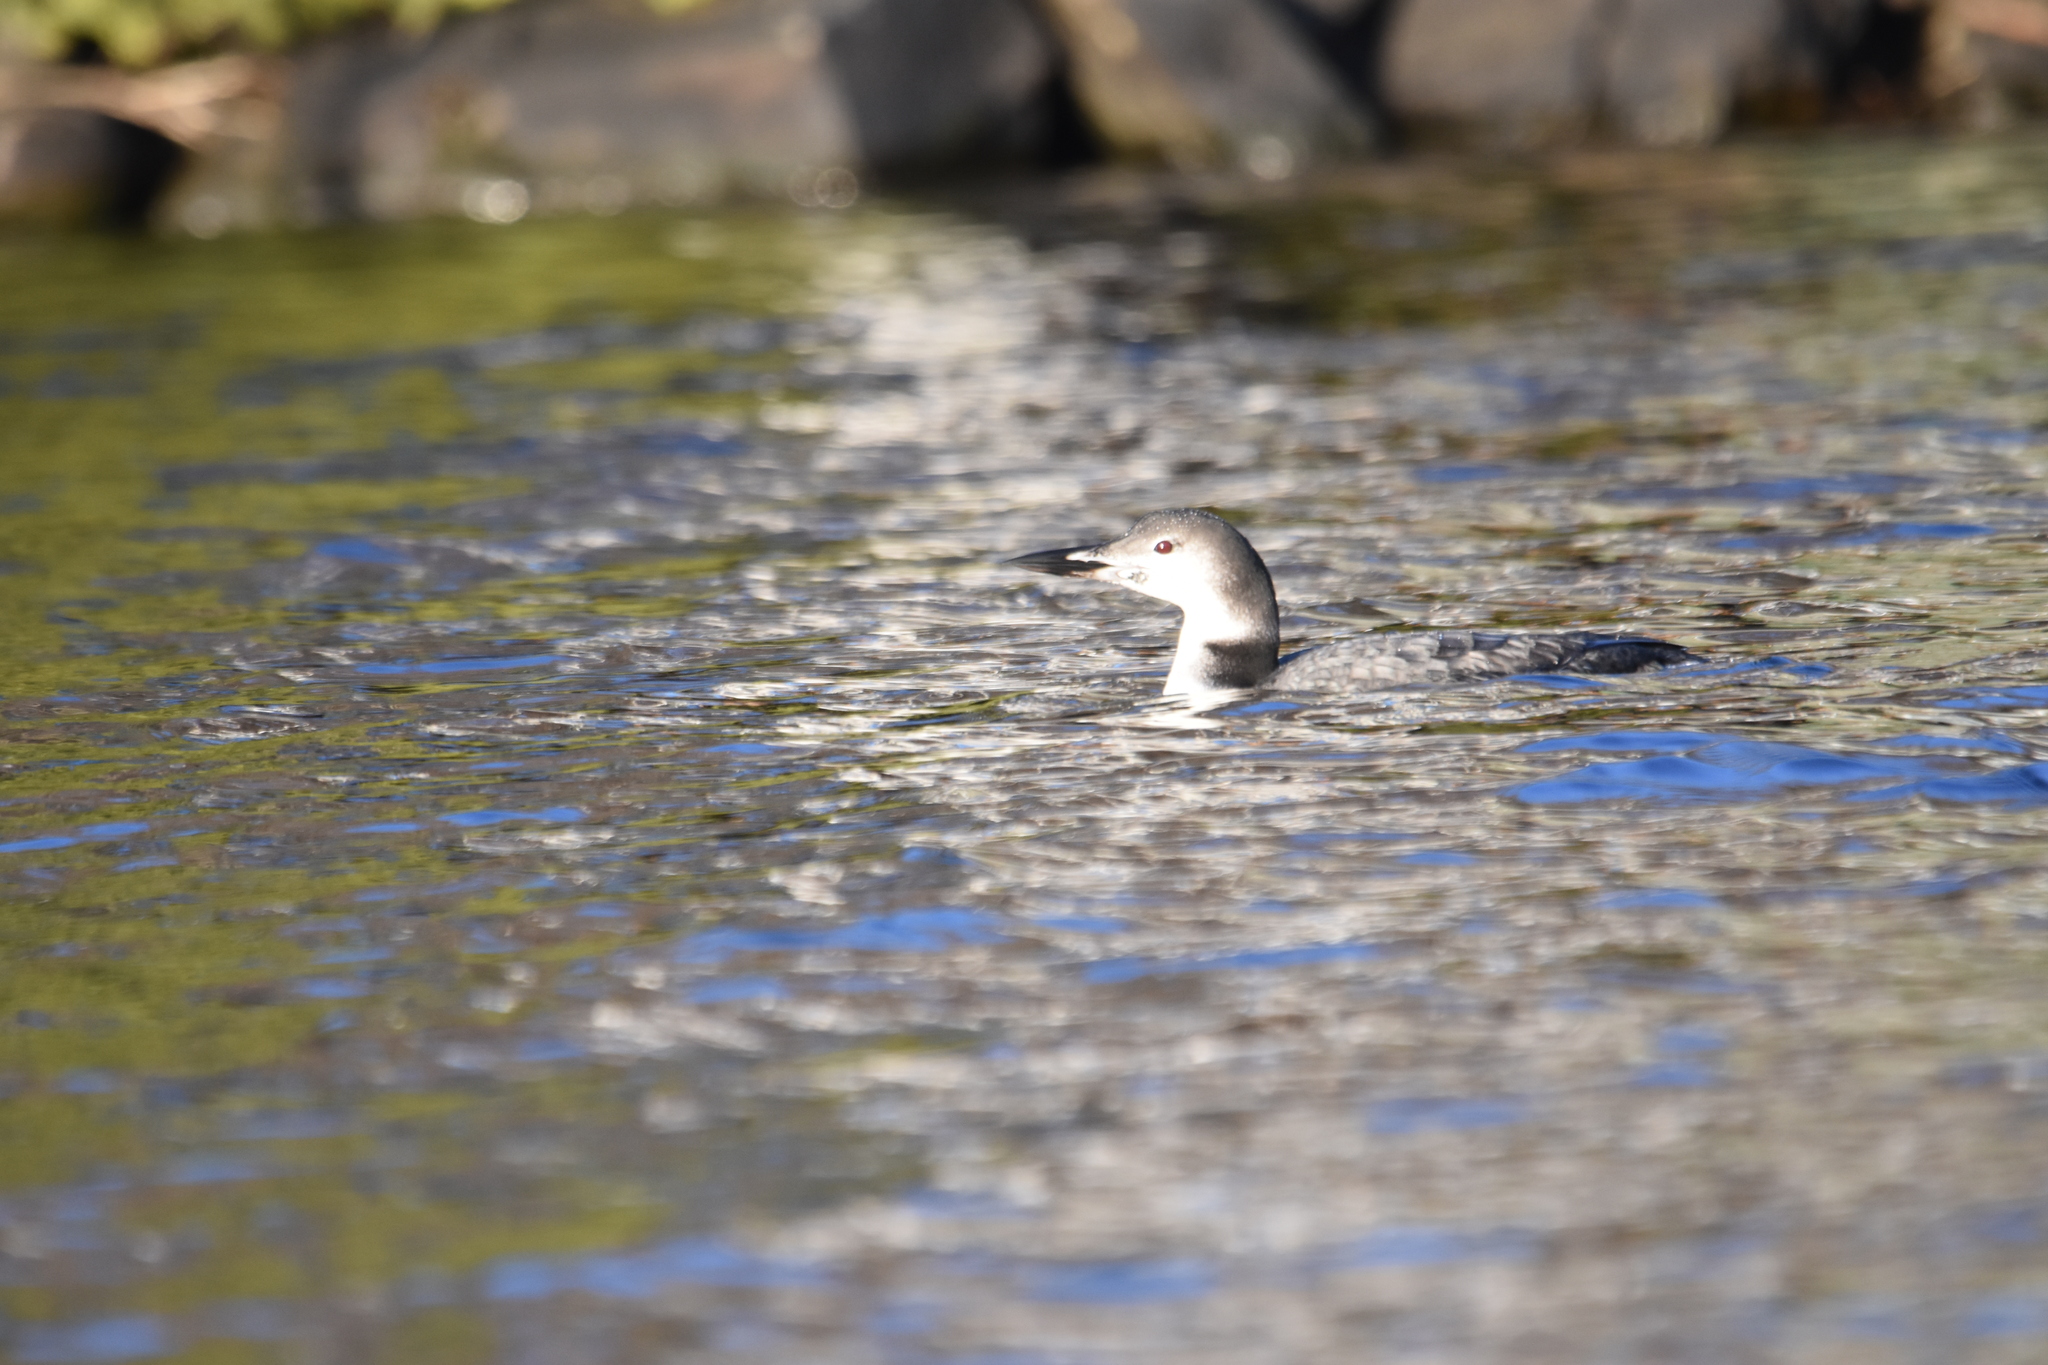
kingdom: Animalia
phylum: Chordata
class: Aves
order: Gaviiformes
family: Gaviidae
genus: Gavia
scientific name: Gavia immer
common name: Common loon
